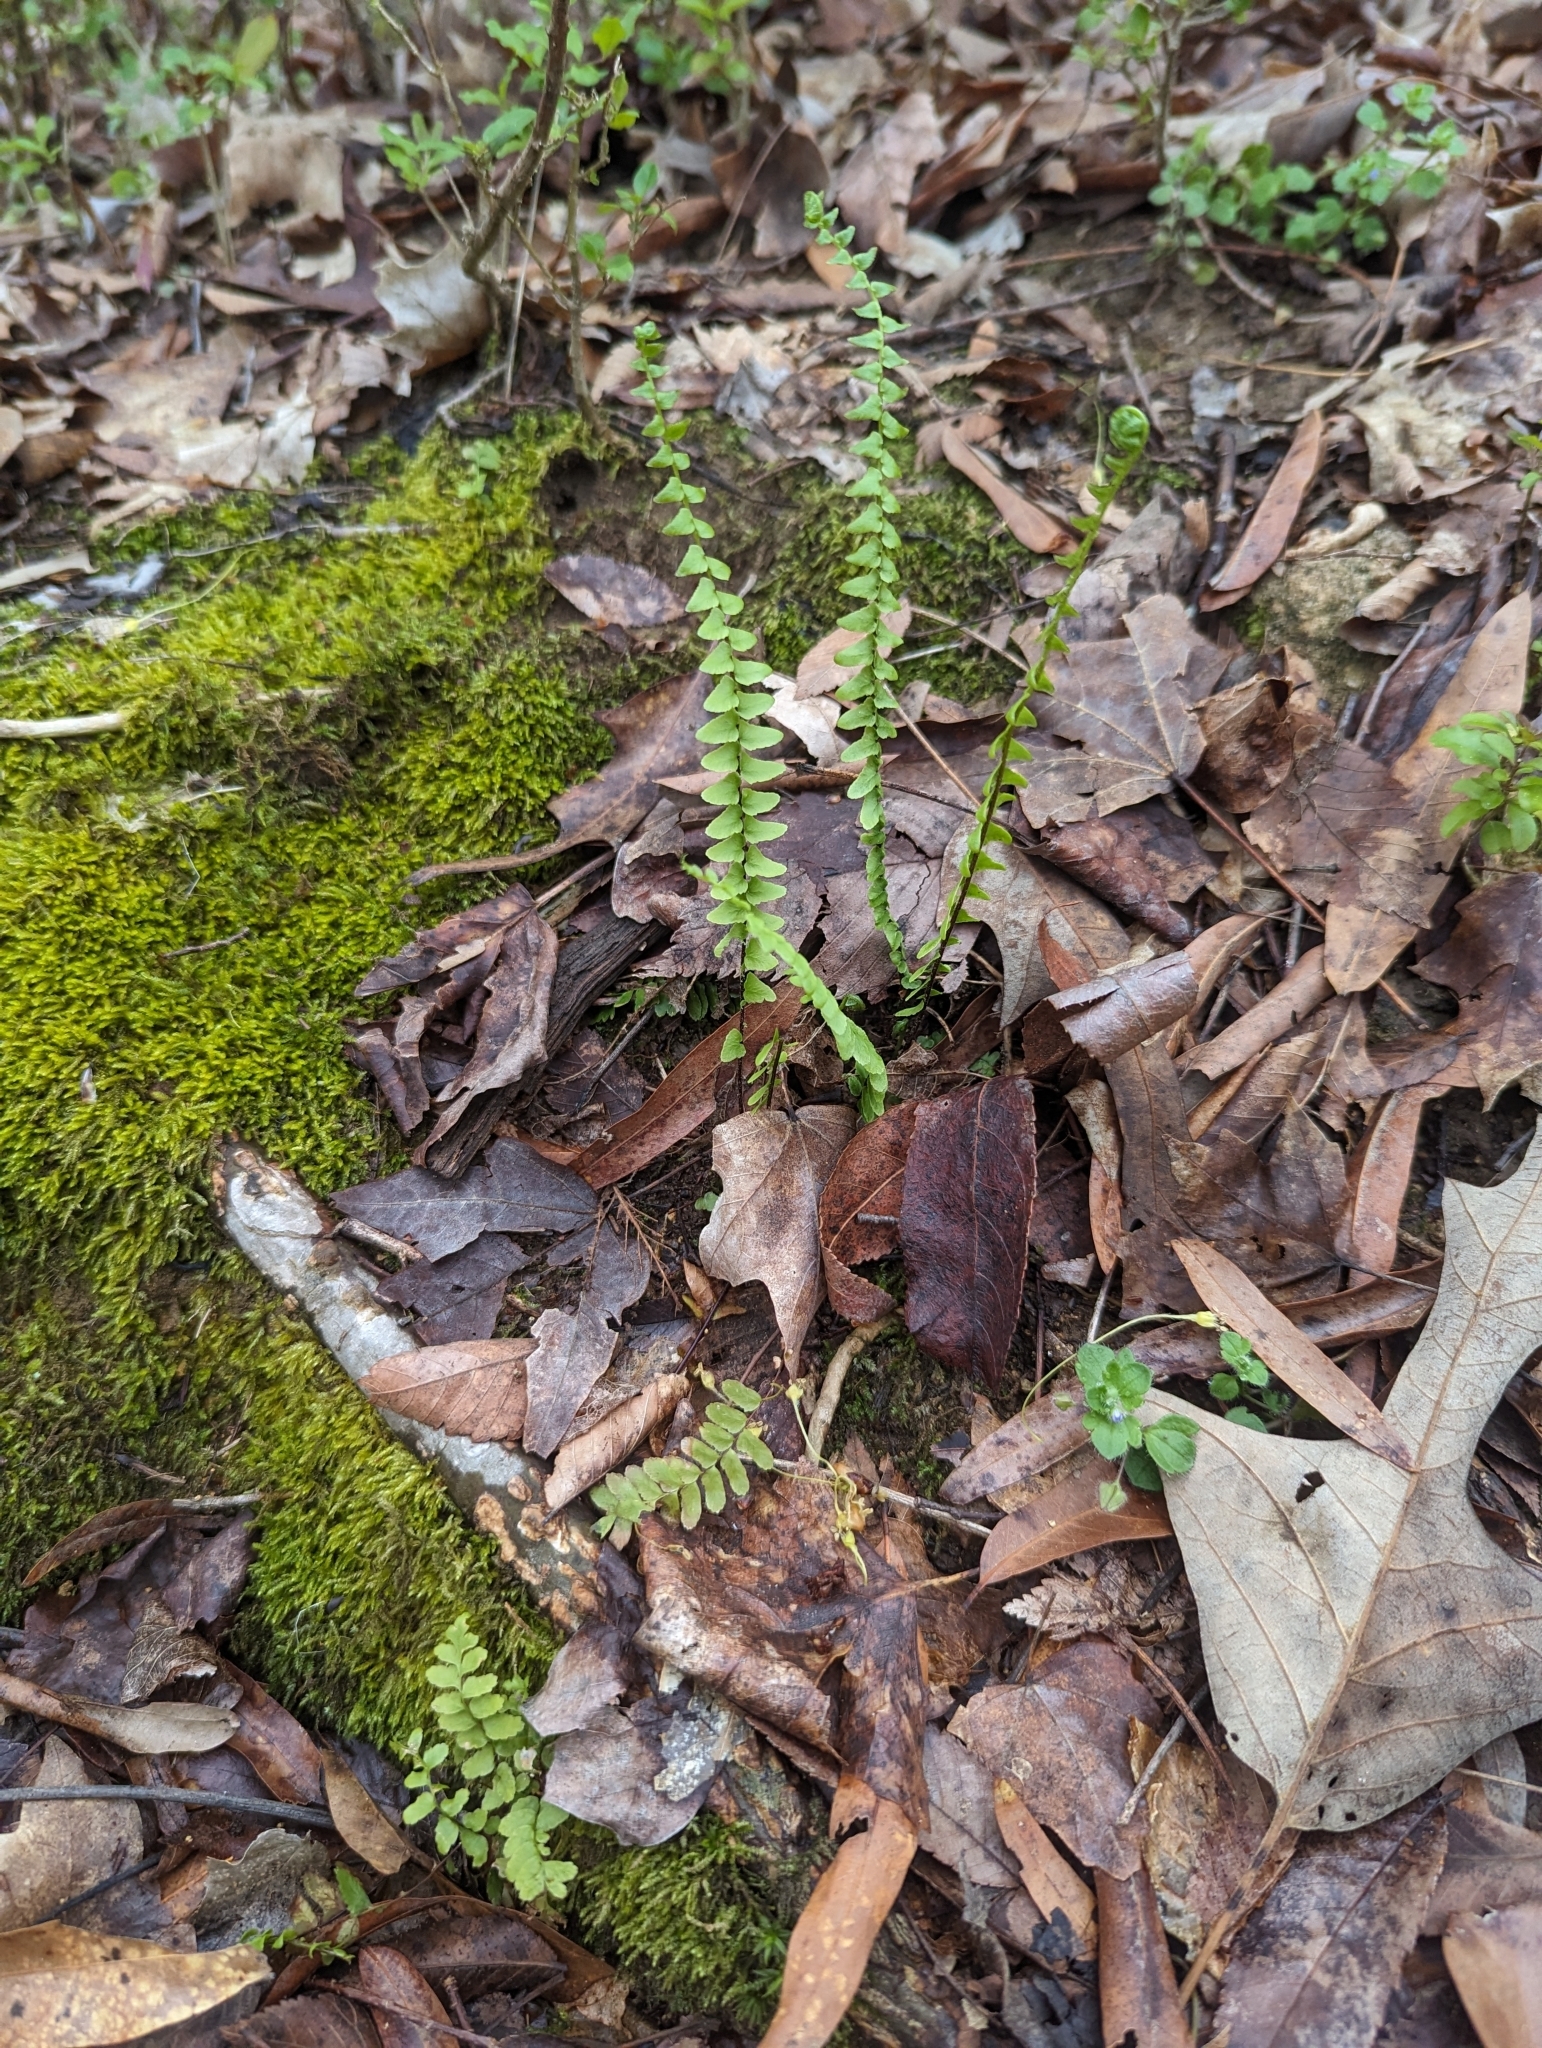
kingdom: Plantae
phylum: Tracheophyta
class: Polypodiopsida
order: Polypodiales
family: Aspleniaceae
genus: Asplenium
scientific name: Asplenium platyneuron
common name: Ebony spleenwort
